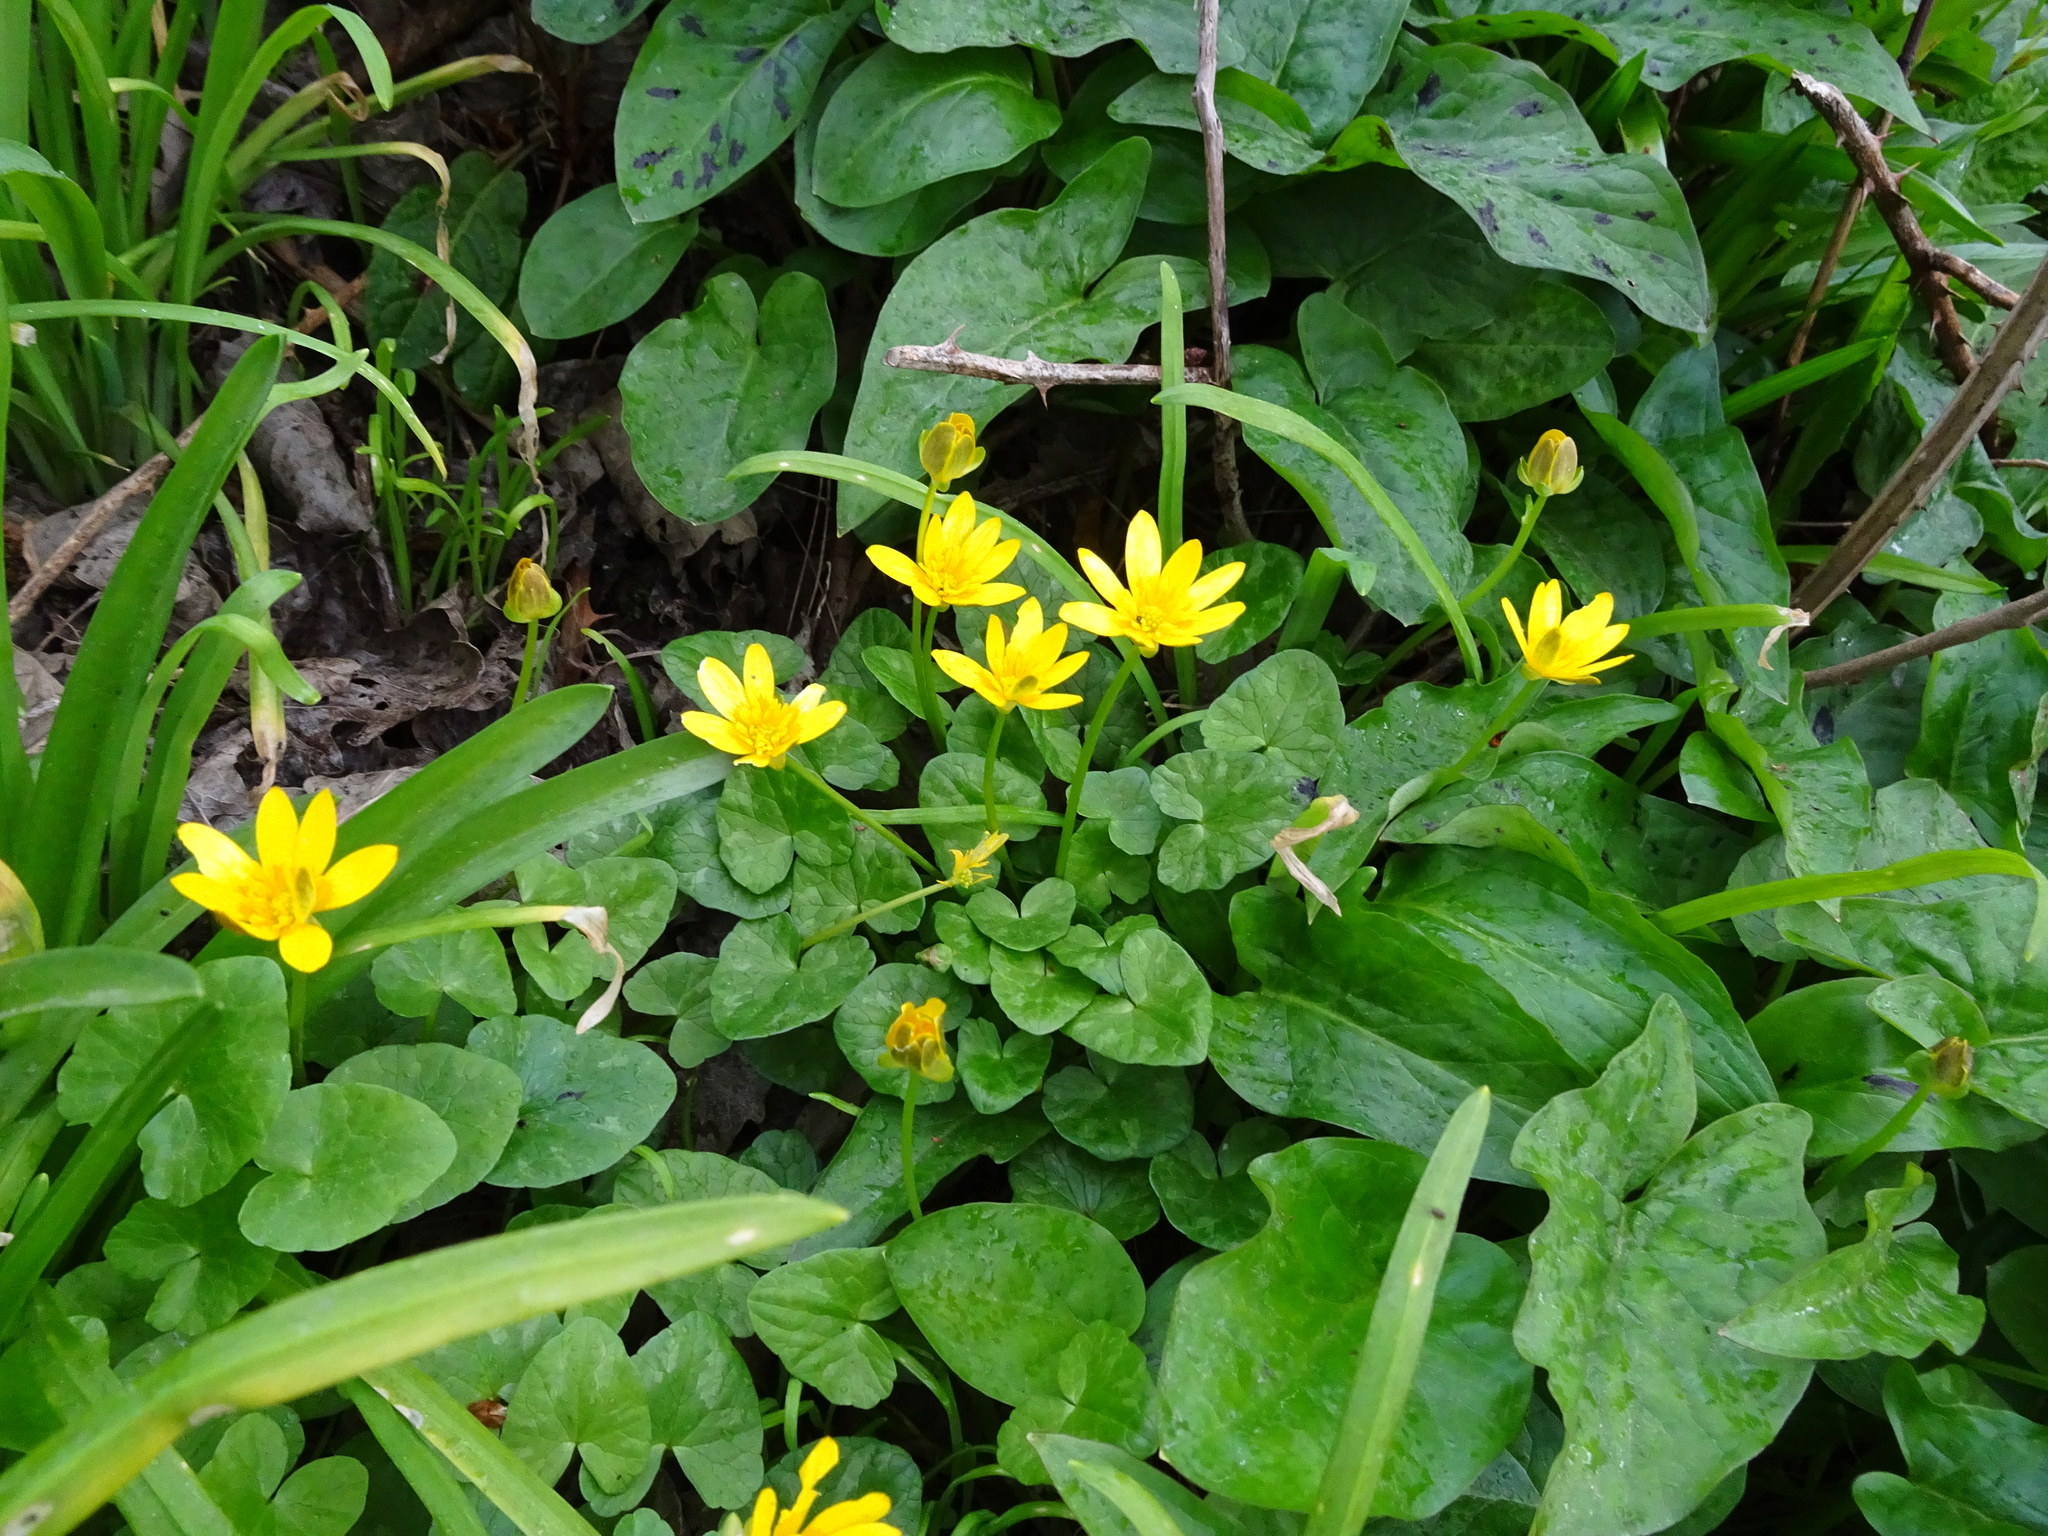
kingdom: Plantae
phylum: Tracheophyta
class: Magnoliopsida
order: Ranunculales
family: Ranunculaceae
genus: Ficaria
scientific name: Ficaria verna
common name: Lesser celandine
